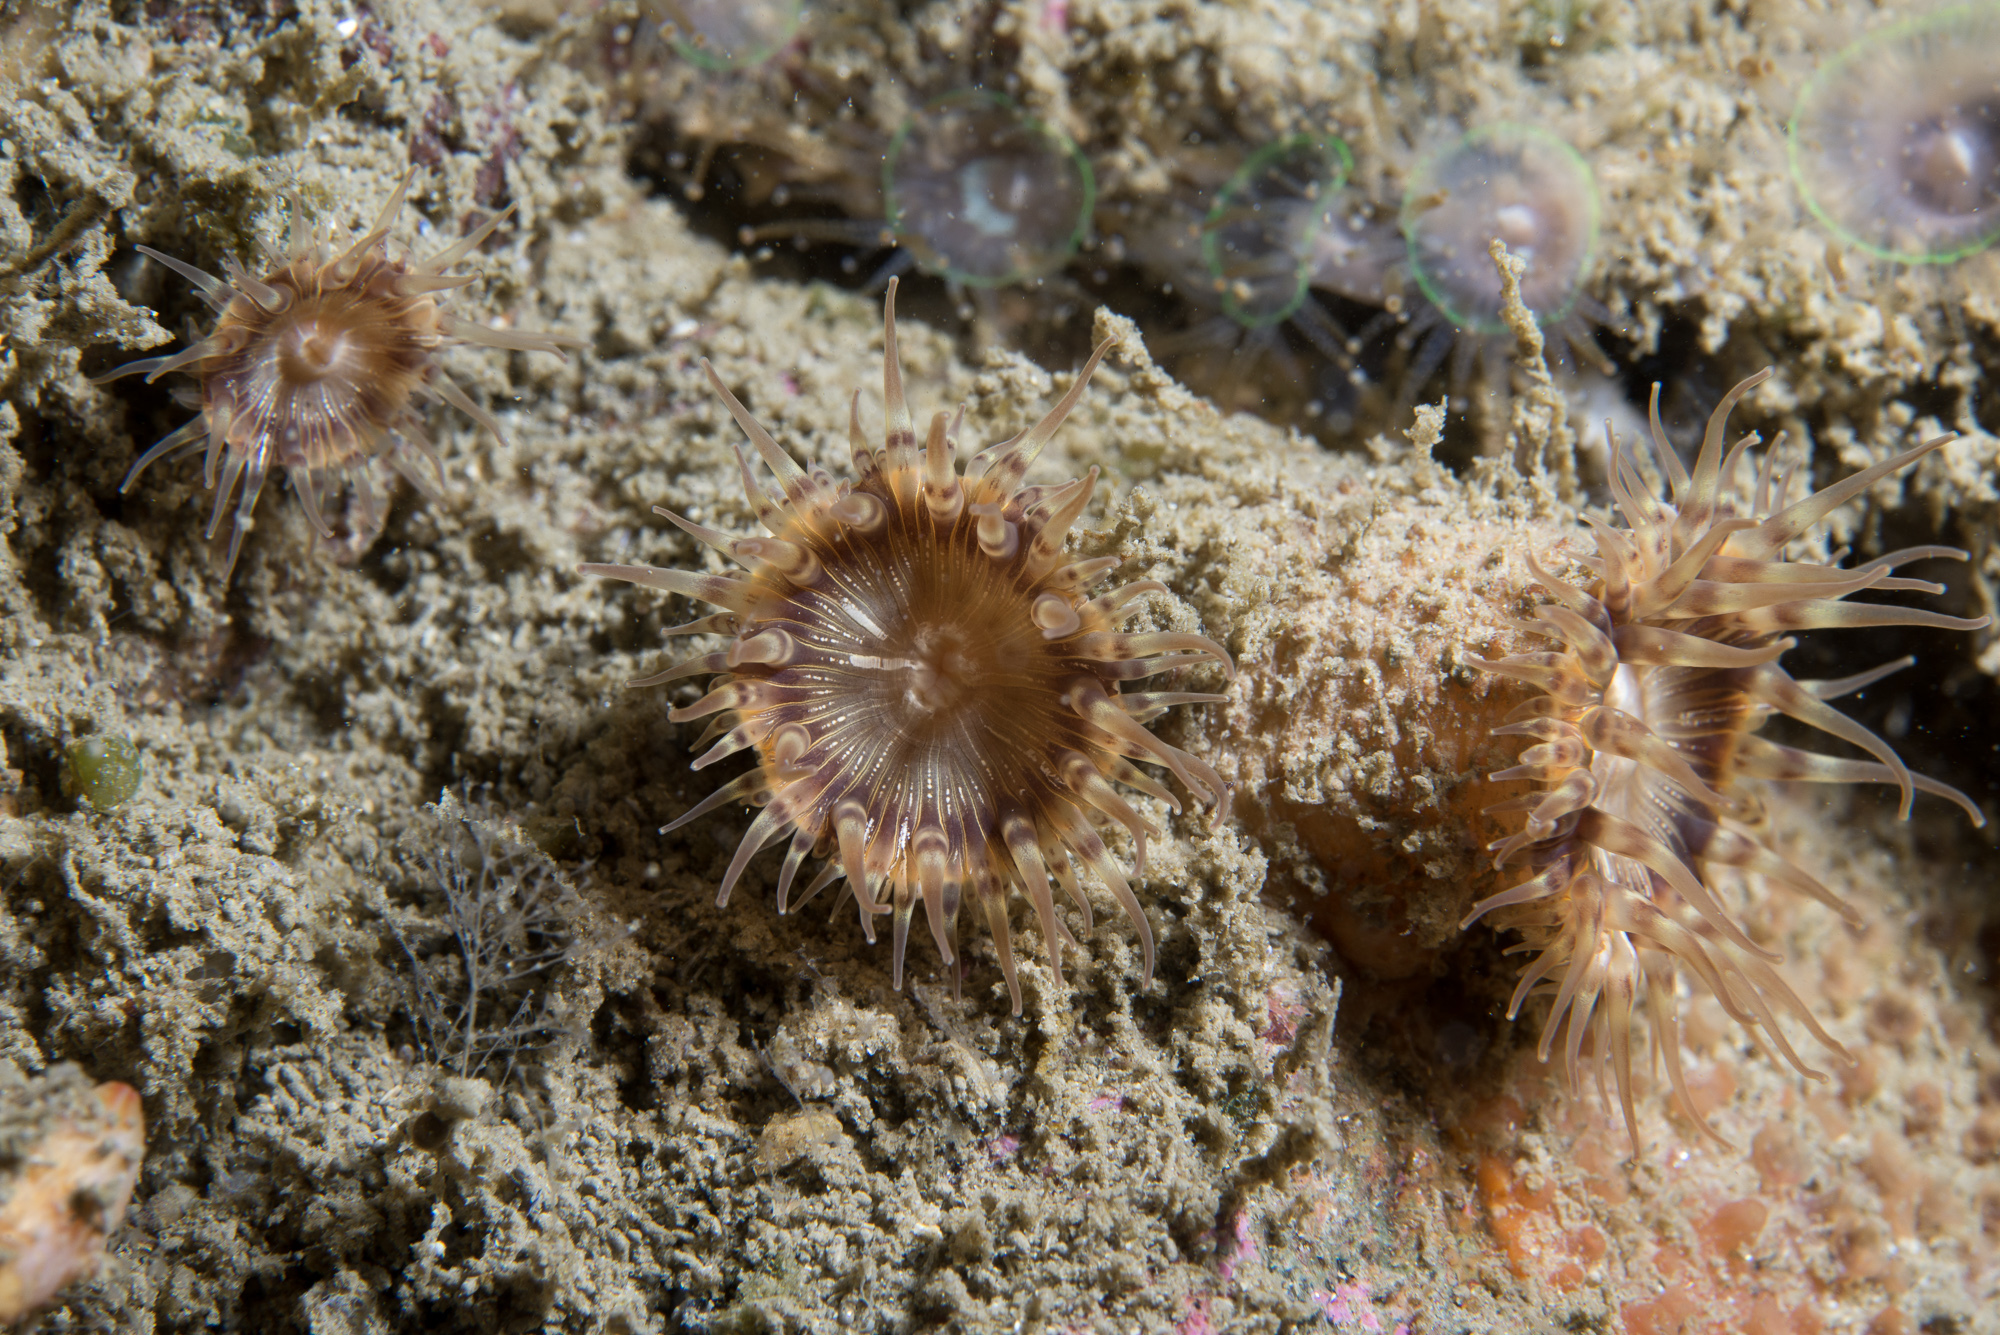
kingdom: Animalia
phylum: Cnidaria
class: Anthozoa
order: Actiniaria
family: Hormathiidae
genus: Hormathia
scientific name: Hormathia coronata
